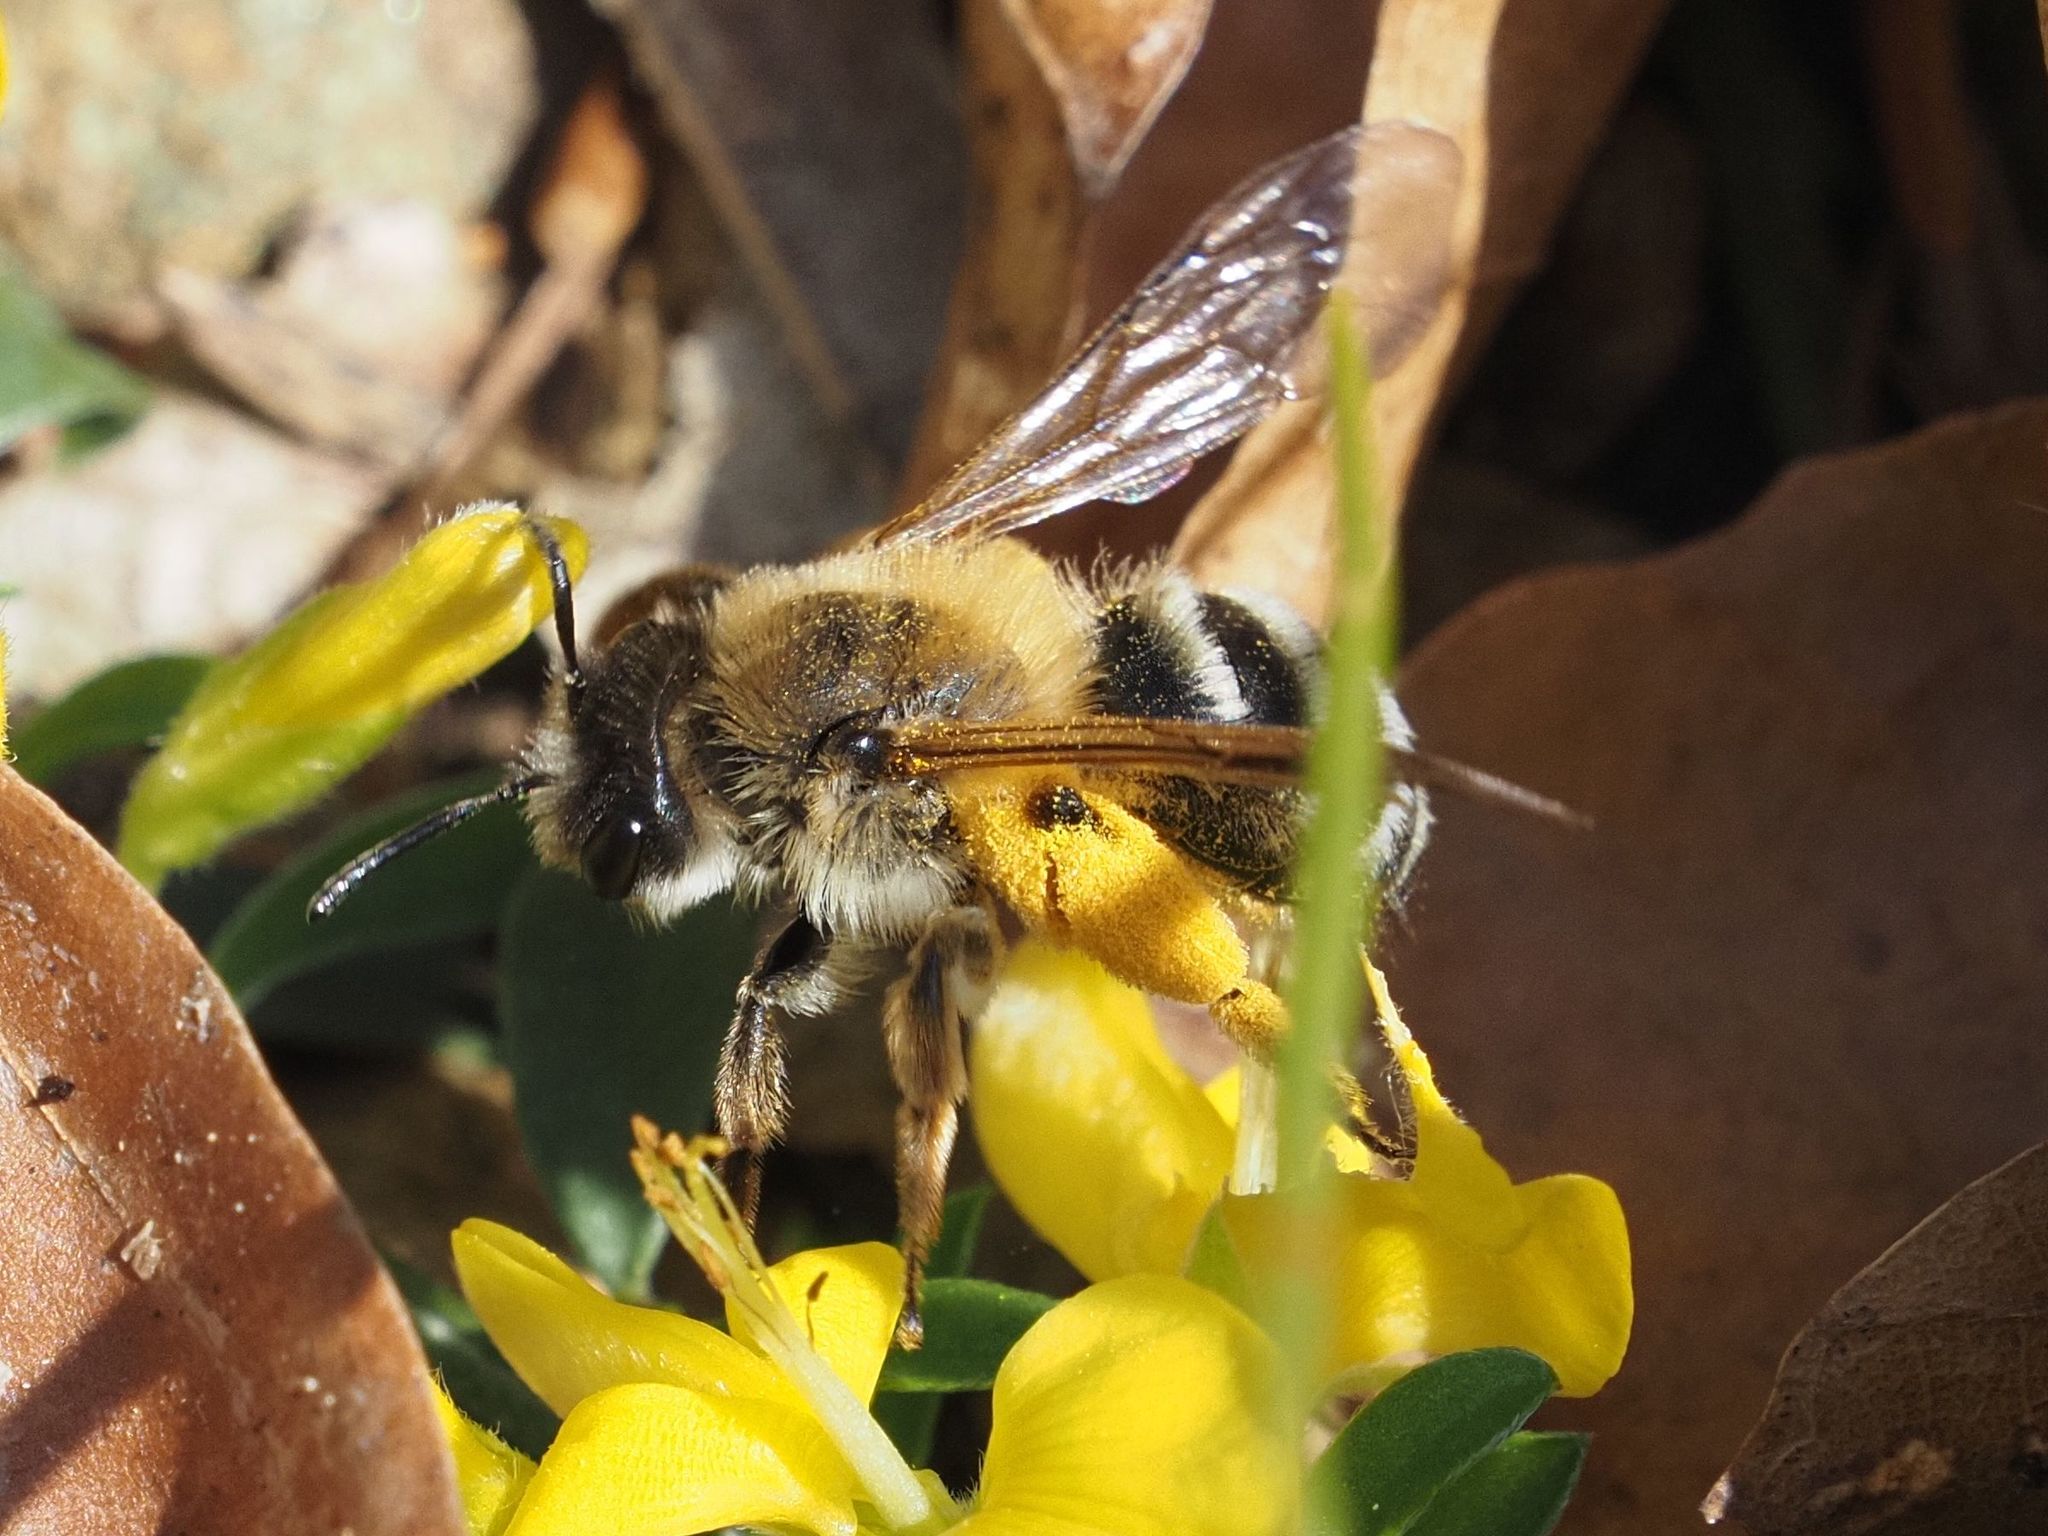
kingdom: Animalia
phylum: Arthropoda
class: Insecta
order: Hymenoptera
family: Andrenidae
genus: Andrena
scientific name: Andrena gravida
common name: White-bellied mining bee
